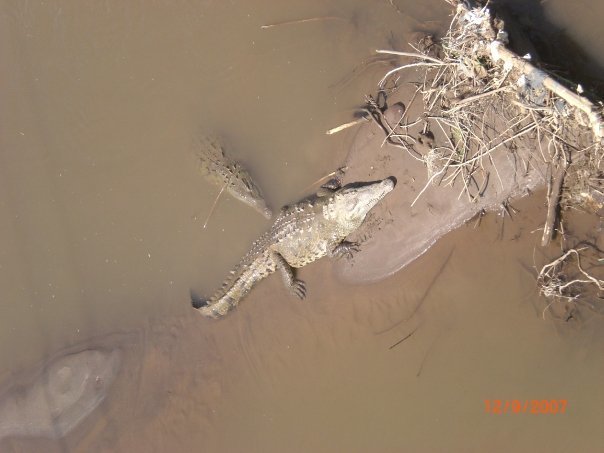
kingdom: Animalia
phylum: Chordata
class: Crocodylia
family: Crocodylidae
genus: Crocodylus
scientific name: Crocodylus acutus
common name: American crocodile
